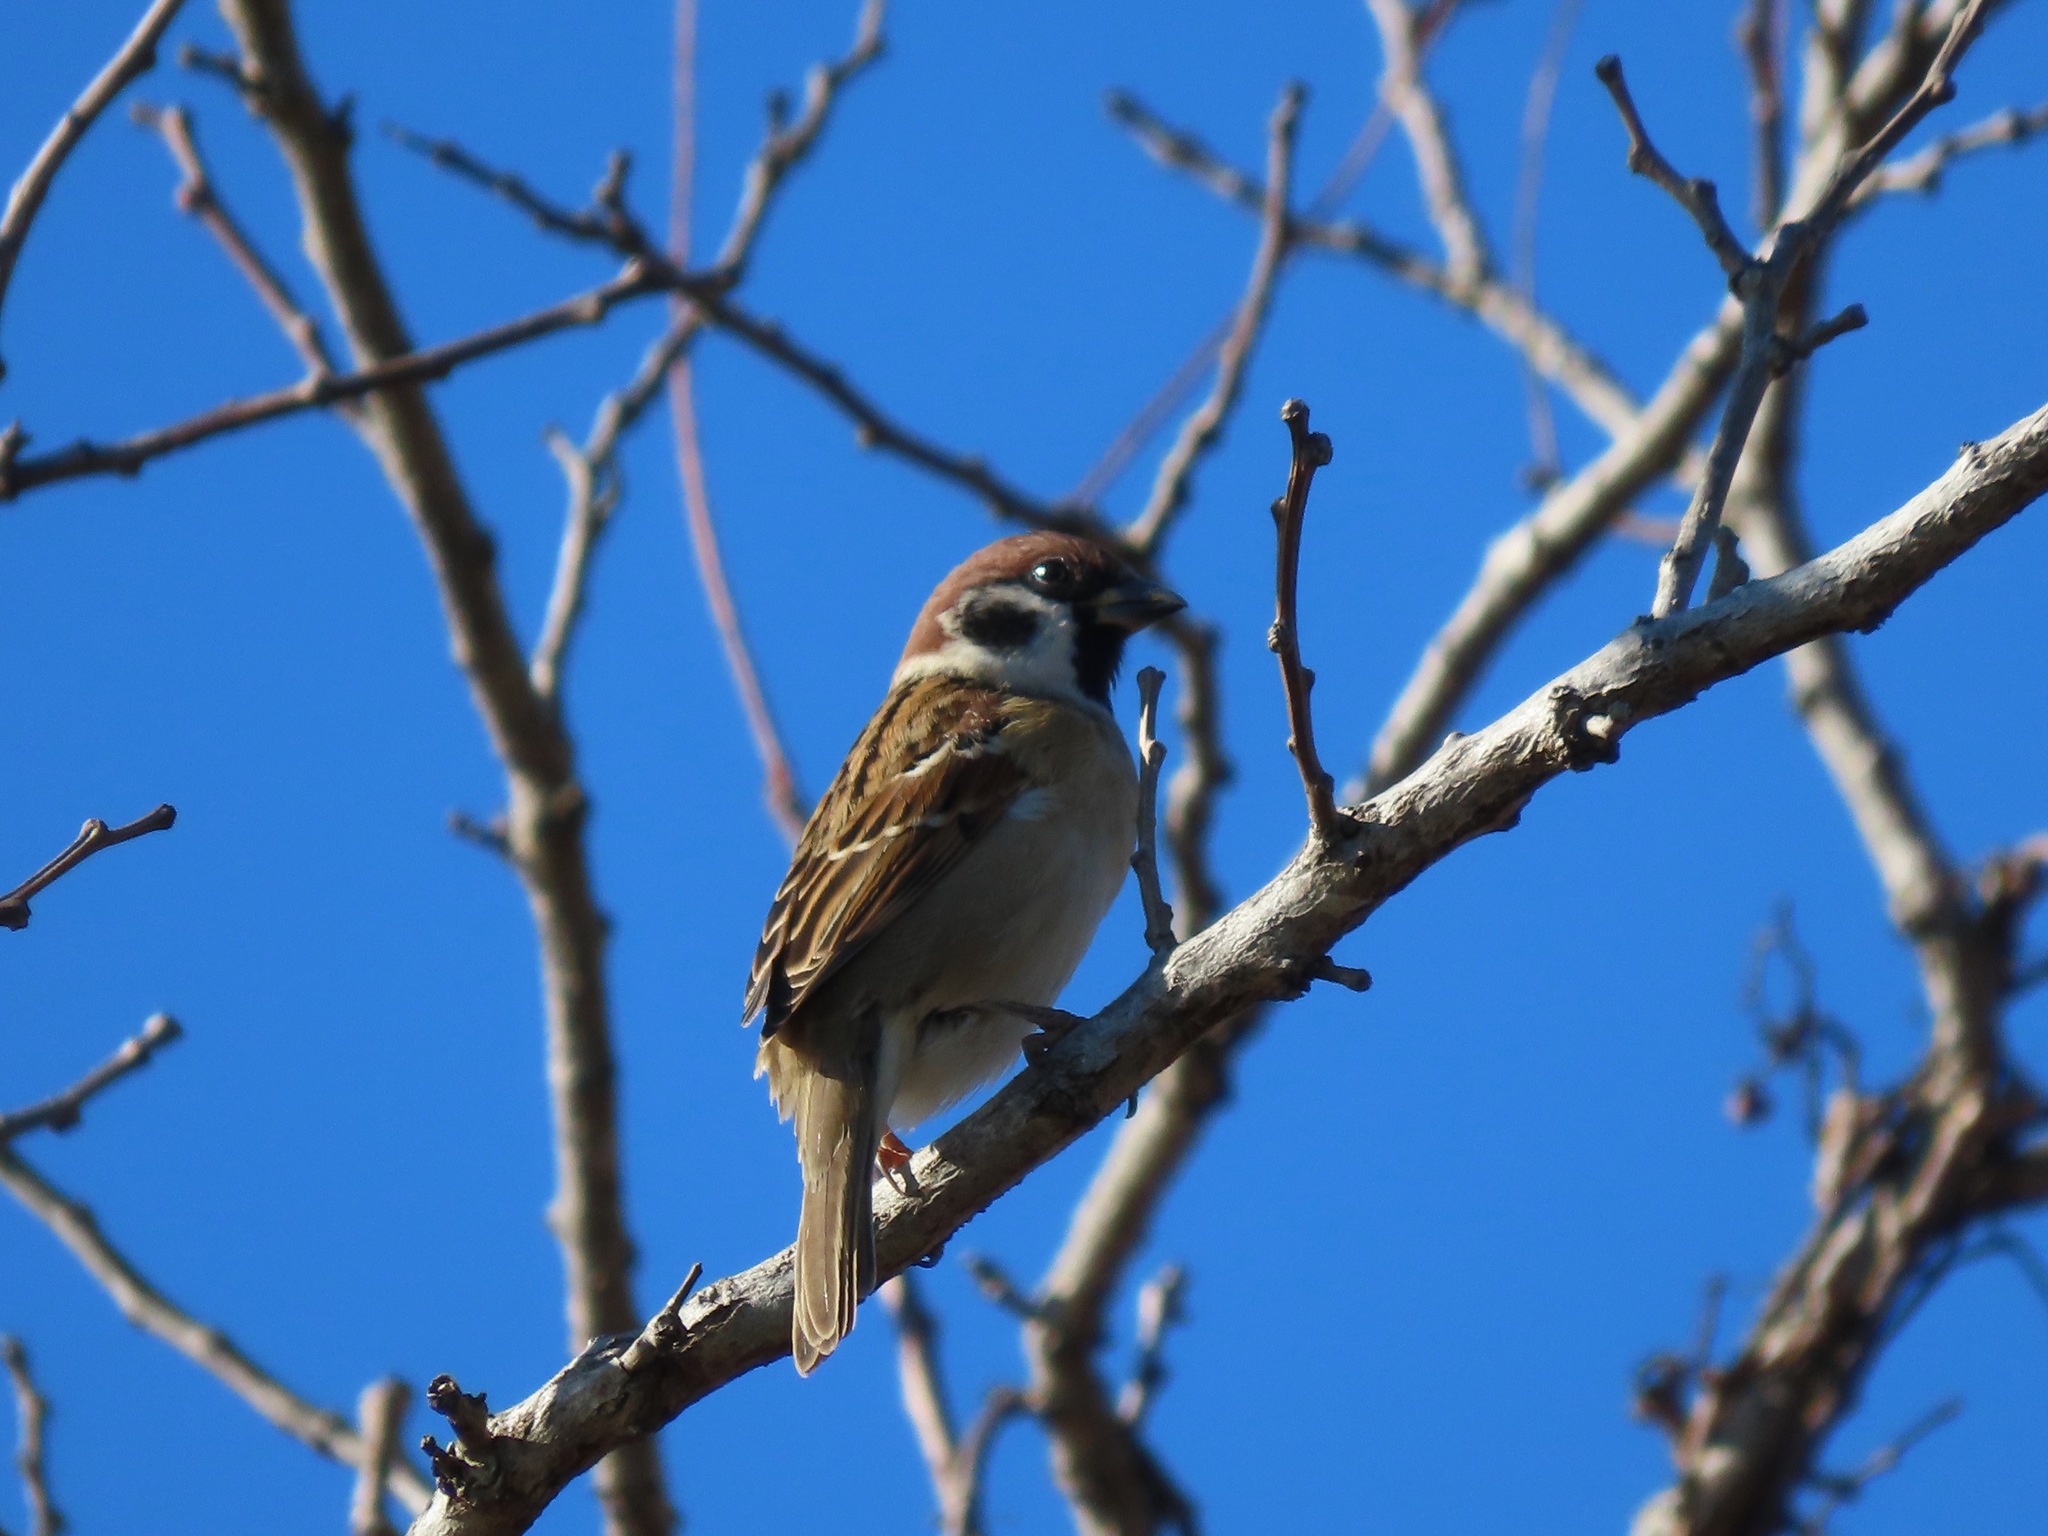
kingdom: Animalia
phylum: Chordata
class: Aves
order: Passeriformes
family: Passeridae
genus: Passer
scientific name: Passer montanus
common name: Eurasian tree sparrow
